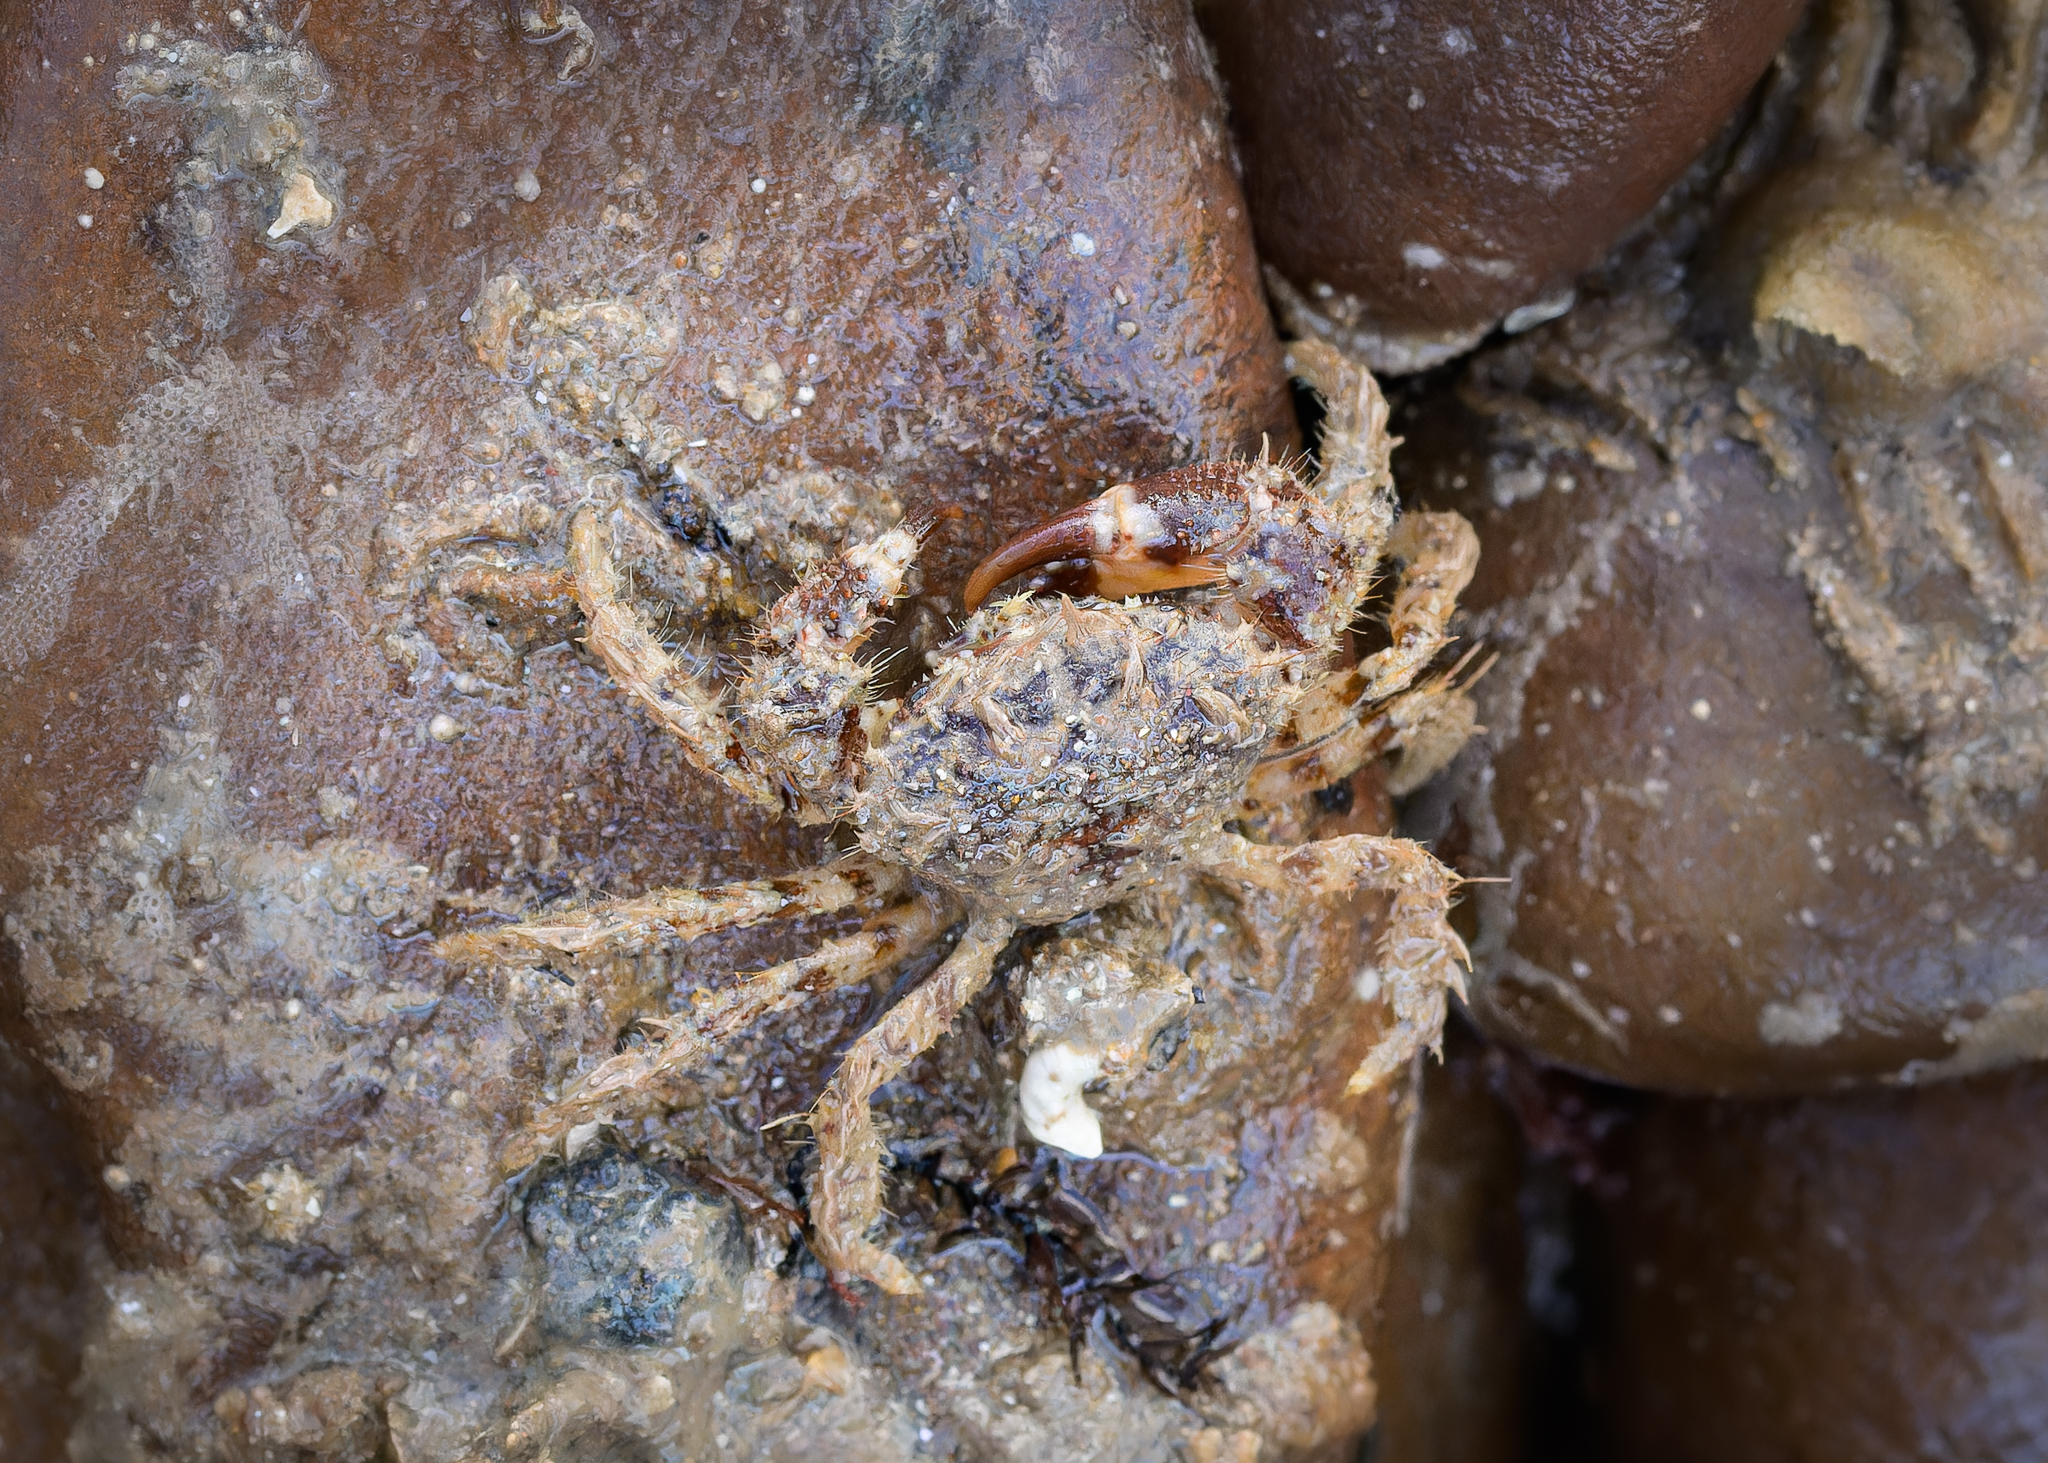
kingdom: Animalia
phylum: Arthropoda
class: Malacostraca
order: Decapoda
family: Pilumnidae
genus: Pilumnus
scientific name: Pilumnus hirtellus
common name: Hairy crab
